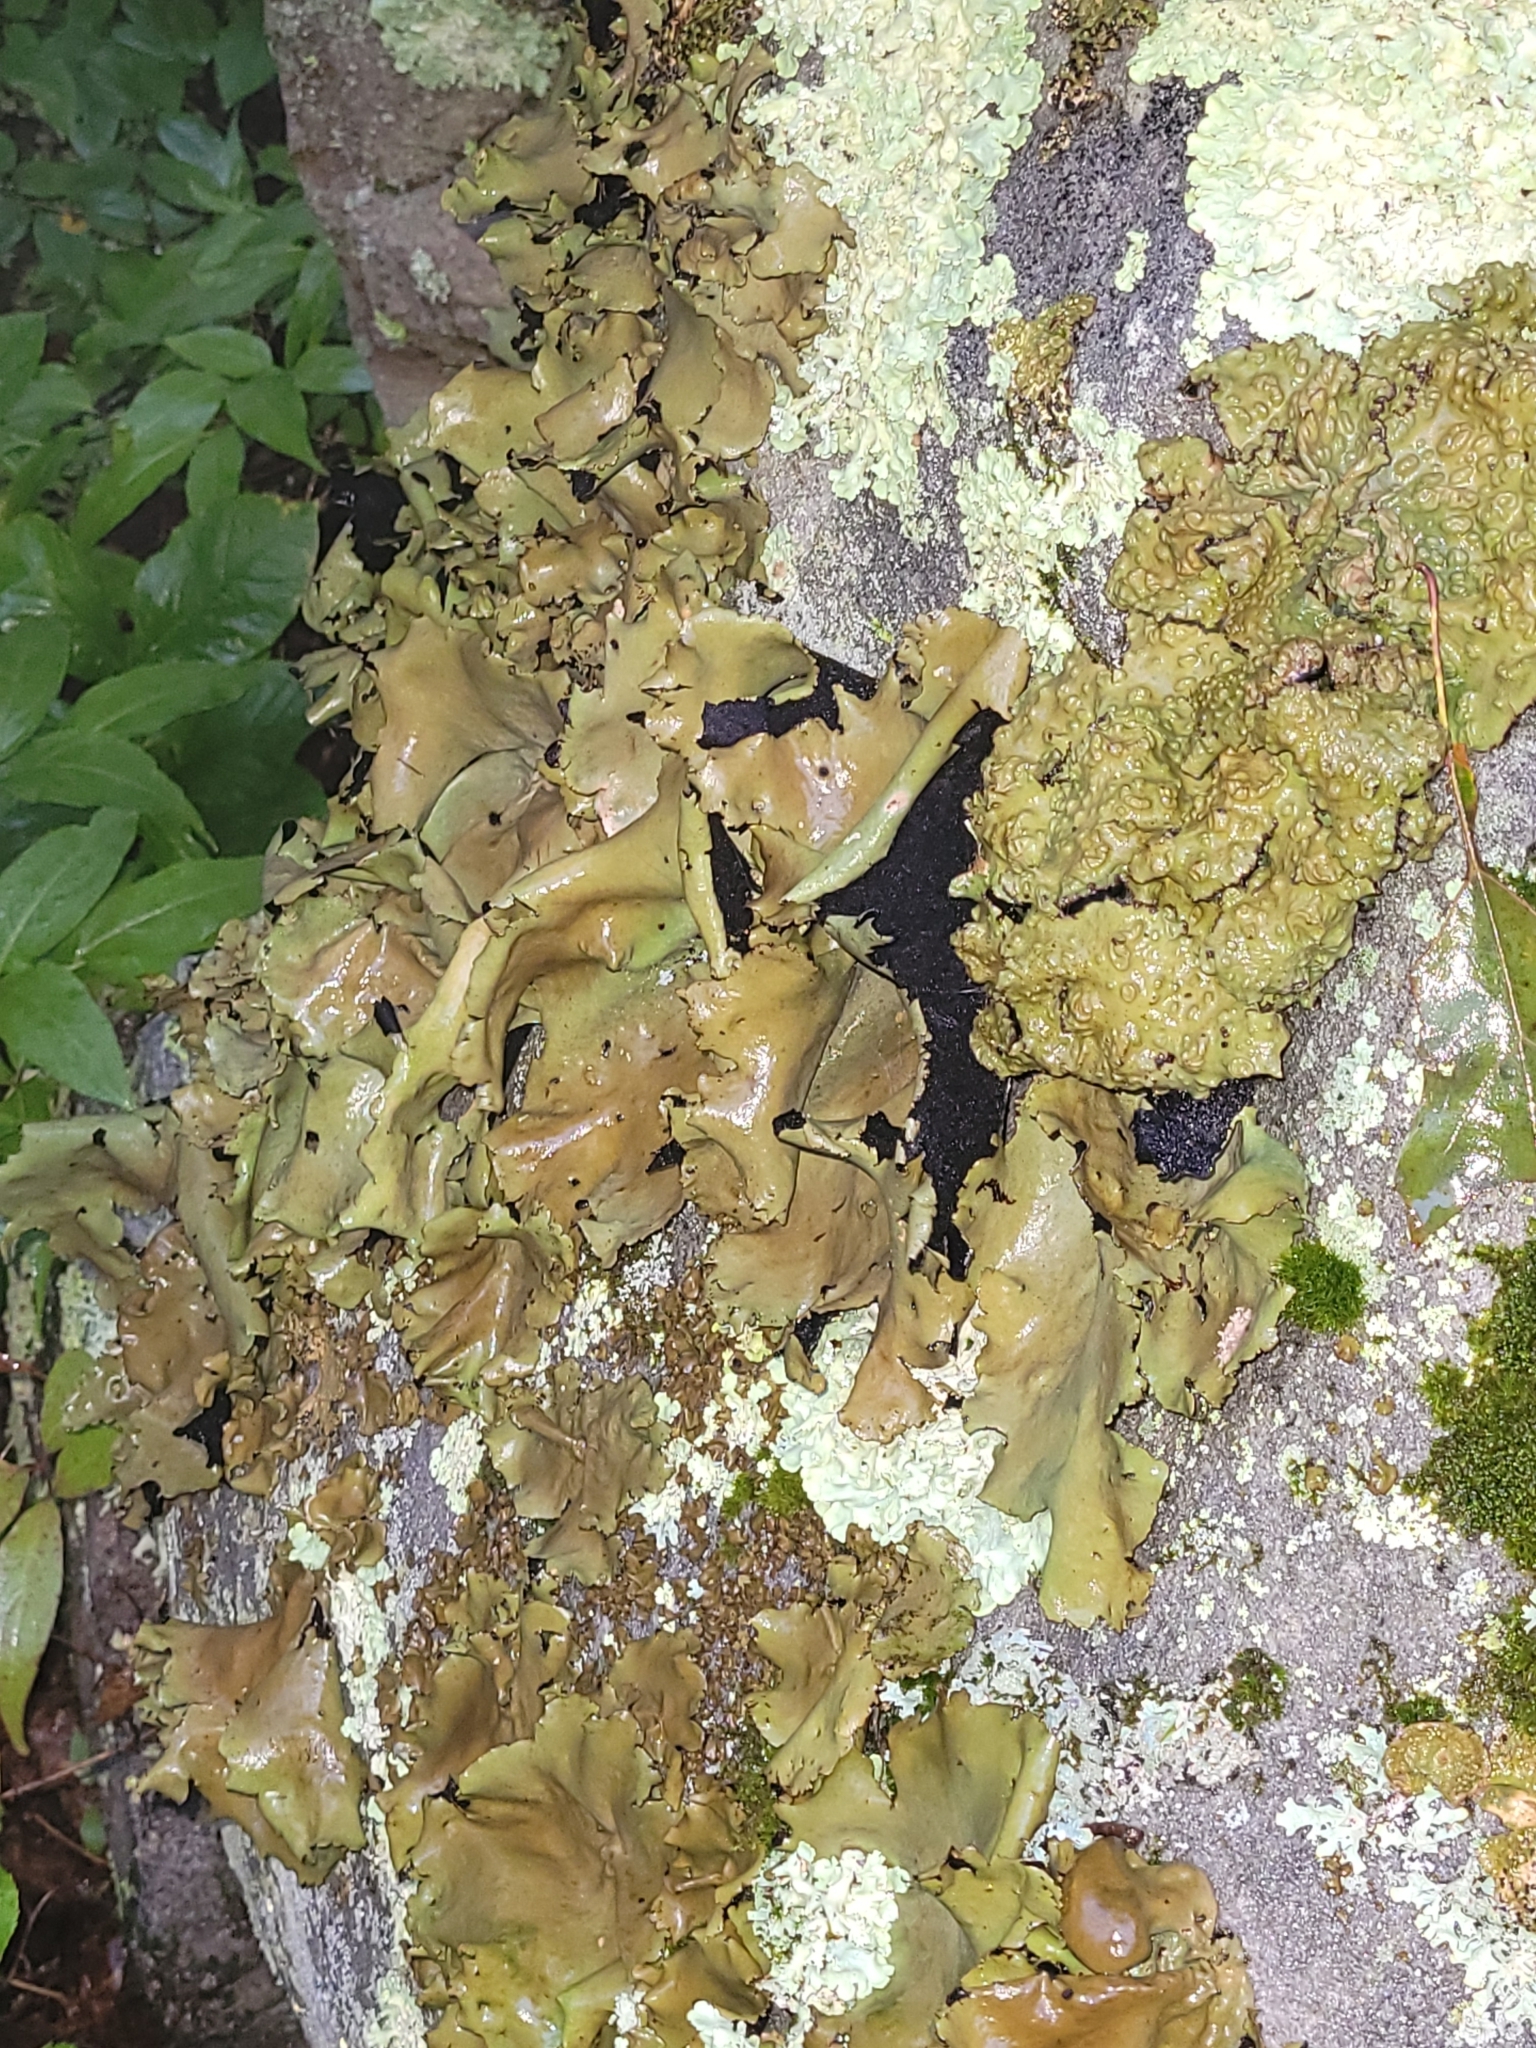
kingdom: Fungi
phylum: Ascomycota
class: Lecanoromycetes
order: Umbilicariales
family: Umbilicariaceae
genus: Umbilicaria
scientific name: Umbilicaria mammulata
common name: Smooth rock tripe
